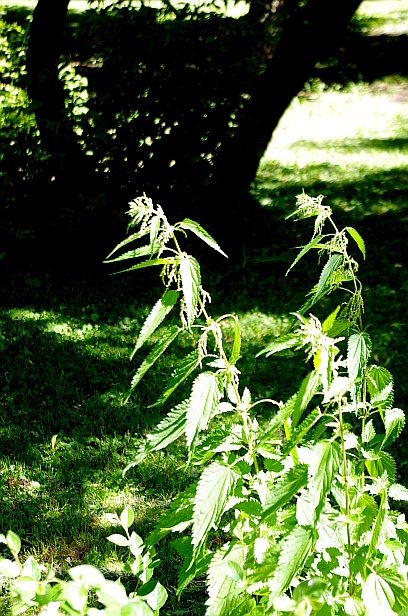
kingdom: Plantae
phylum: Tracheophyta
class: Magnoliopsida
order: Rosales
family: Urticaceae
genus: Urtica
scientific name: Urtica dioica
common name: Common nettle
